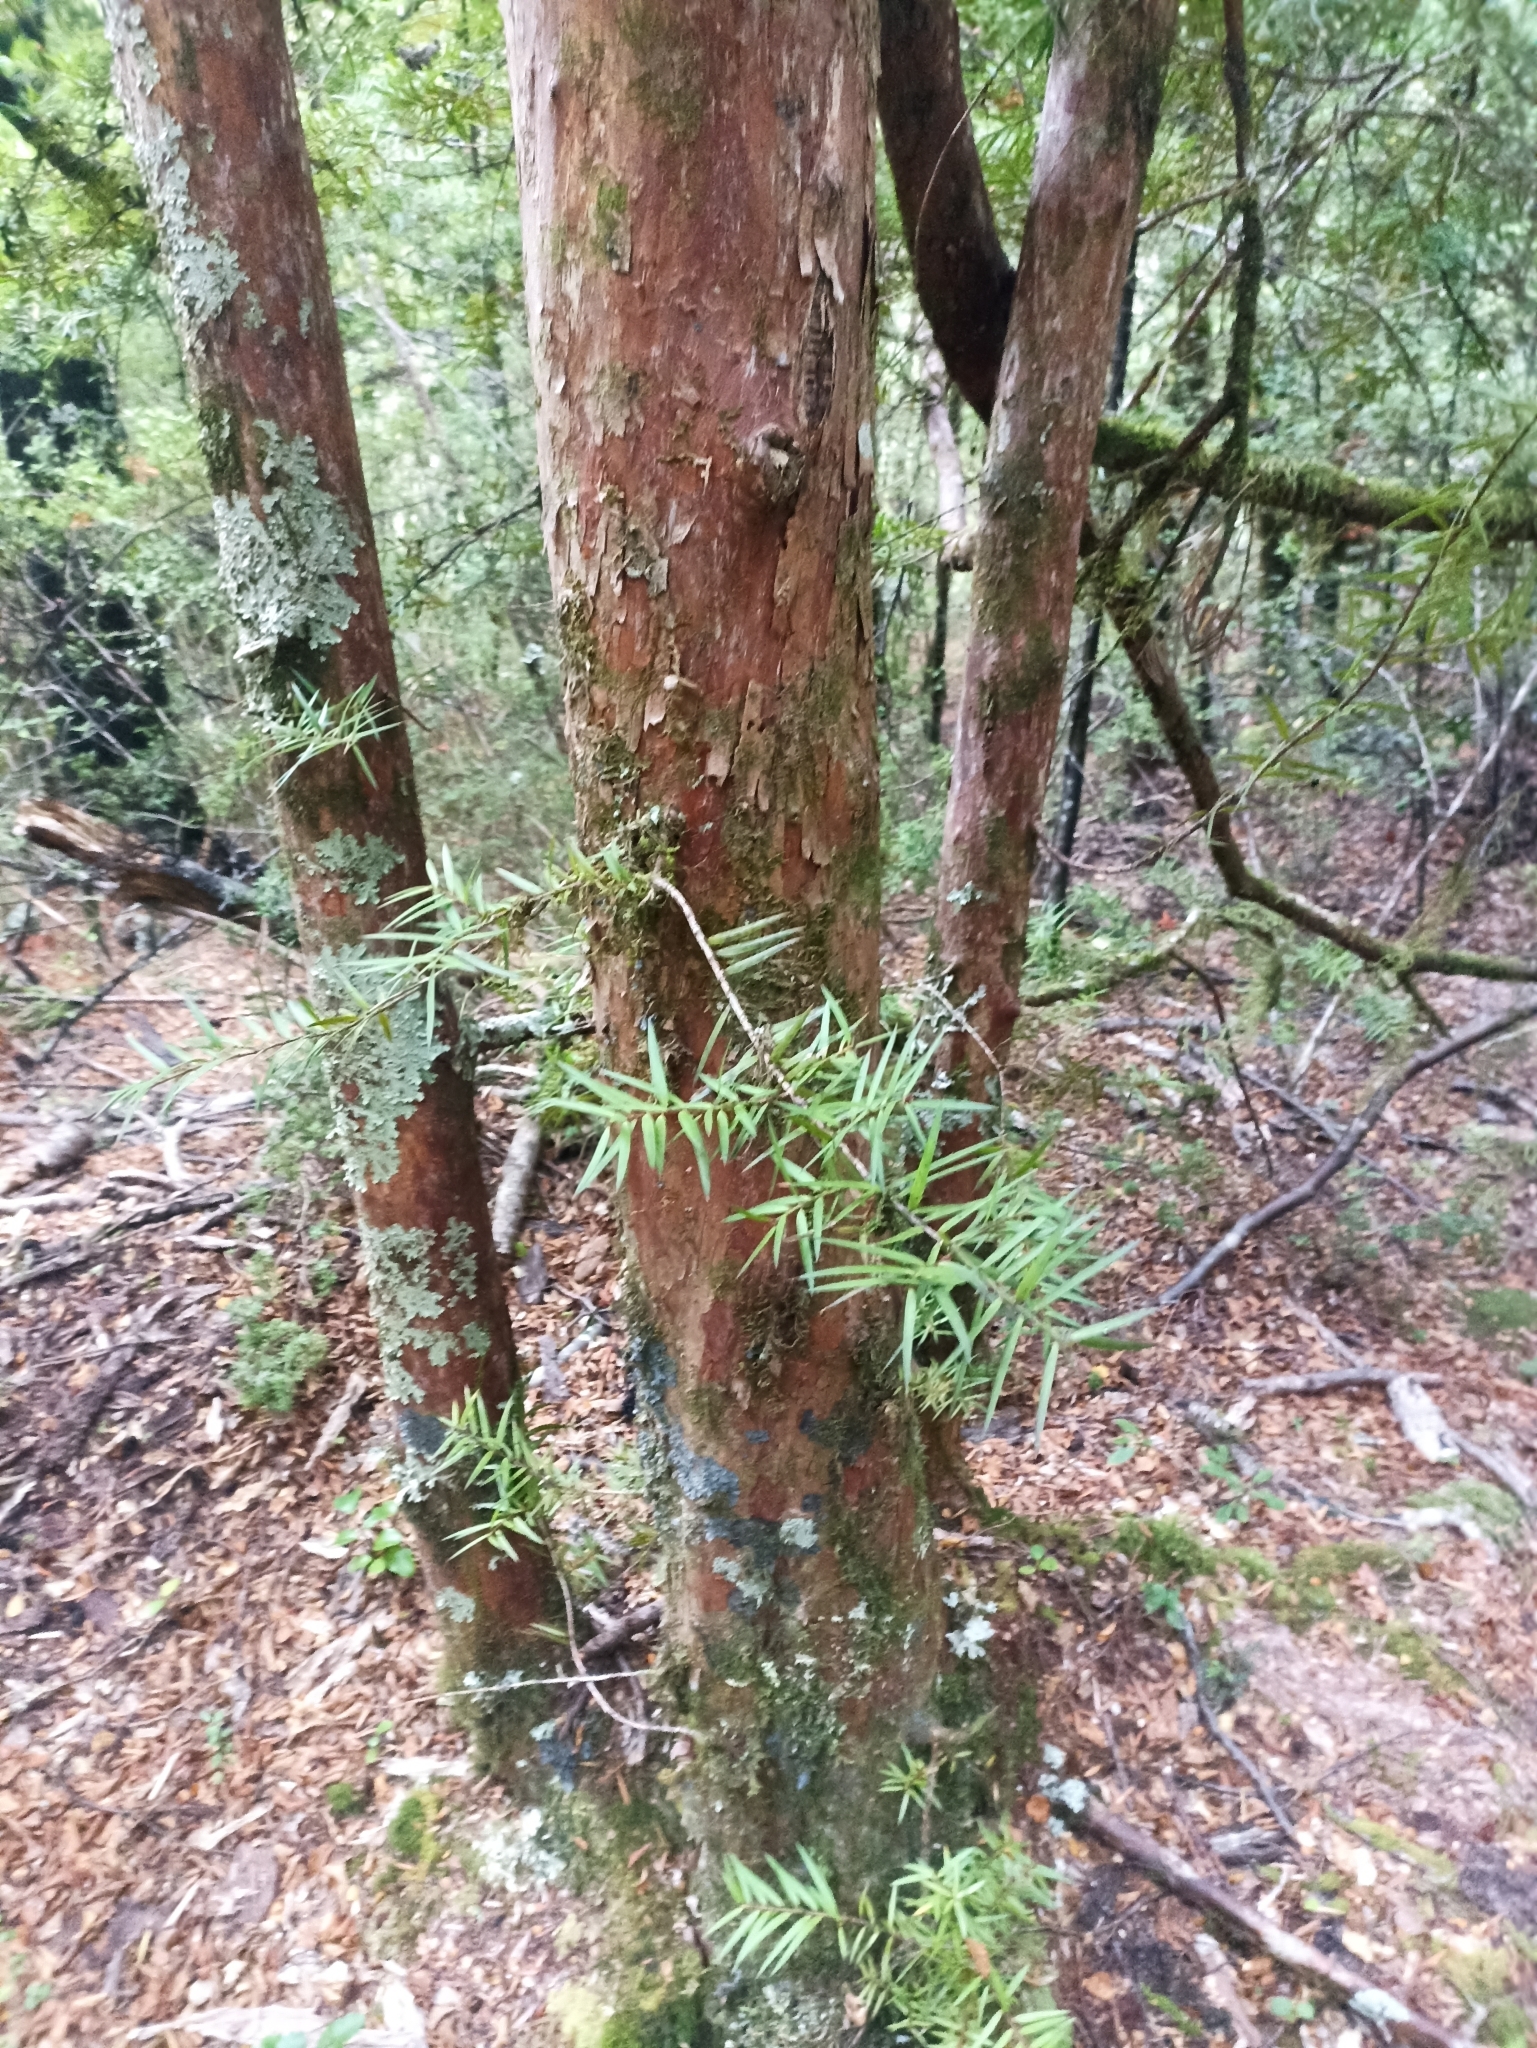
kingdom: Plantae
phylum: Tracheophyta
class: Pinopsida
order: Pinales
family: Podocarpaceae
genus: Podocarpus
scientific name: Podocarpus laetus
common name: Hall's totara
